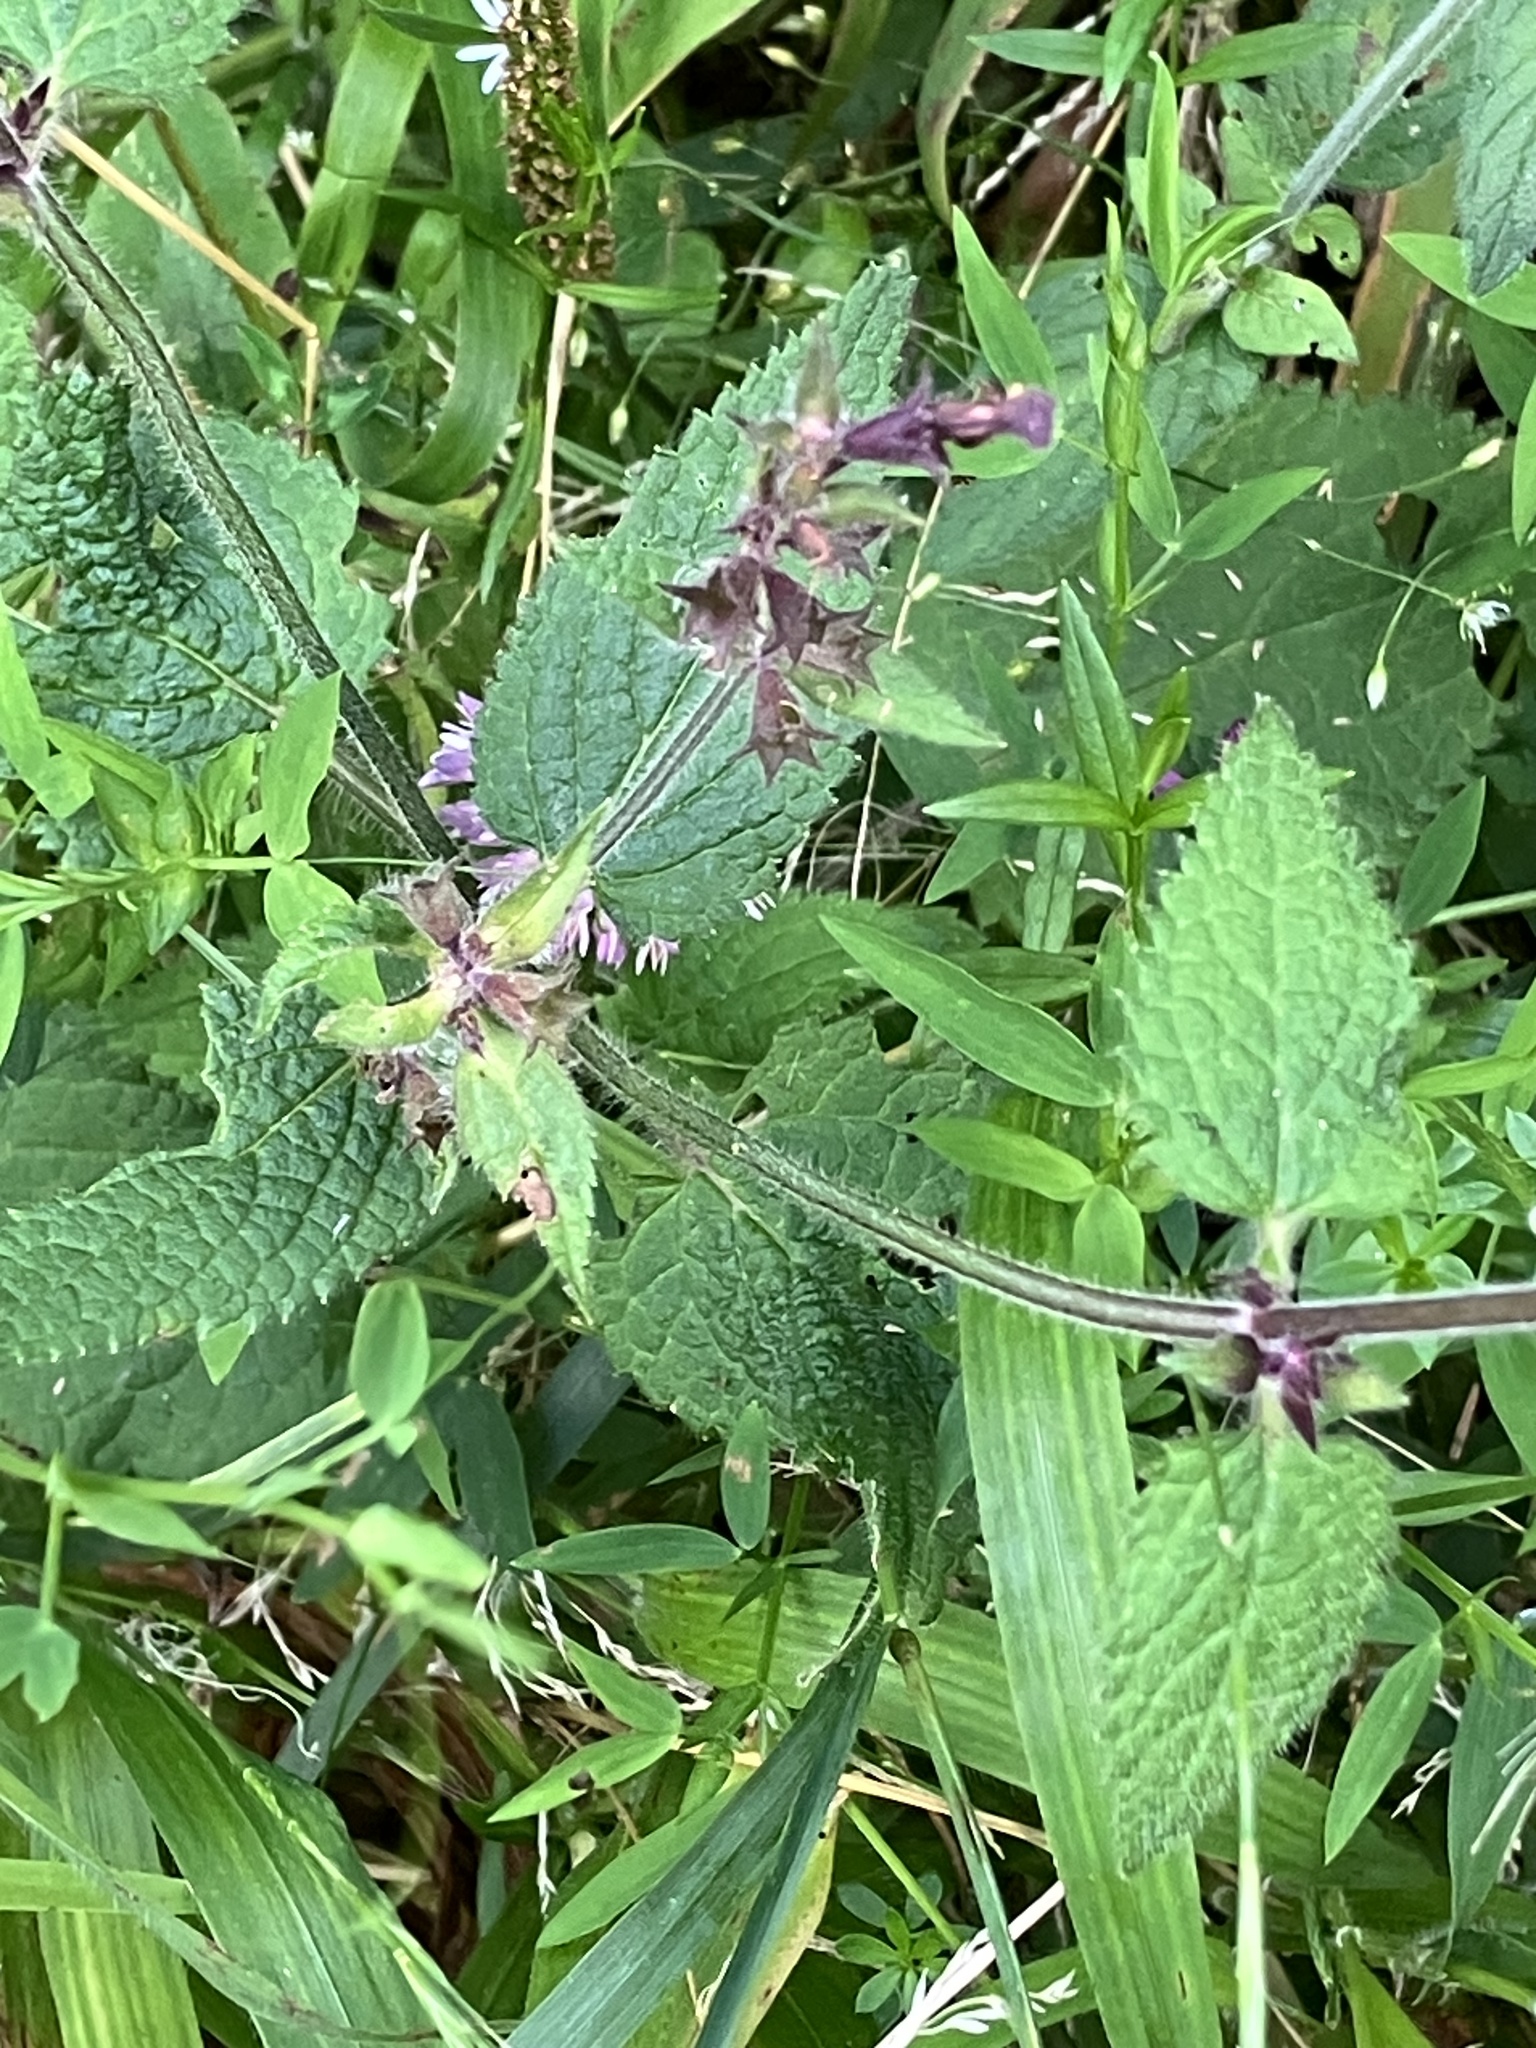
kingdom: Plantae
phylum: Tracheophyta
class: Magnoliopsida
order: Lamiales
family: Lamiaceae
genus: Stachys
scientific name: Stachys sylvatica
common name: Hedge woundwort
